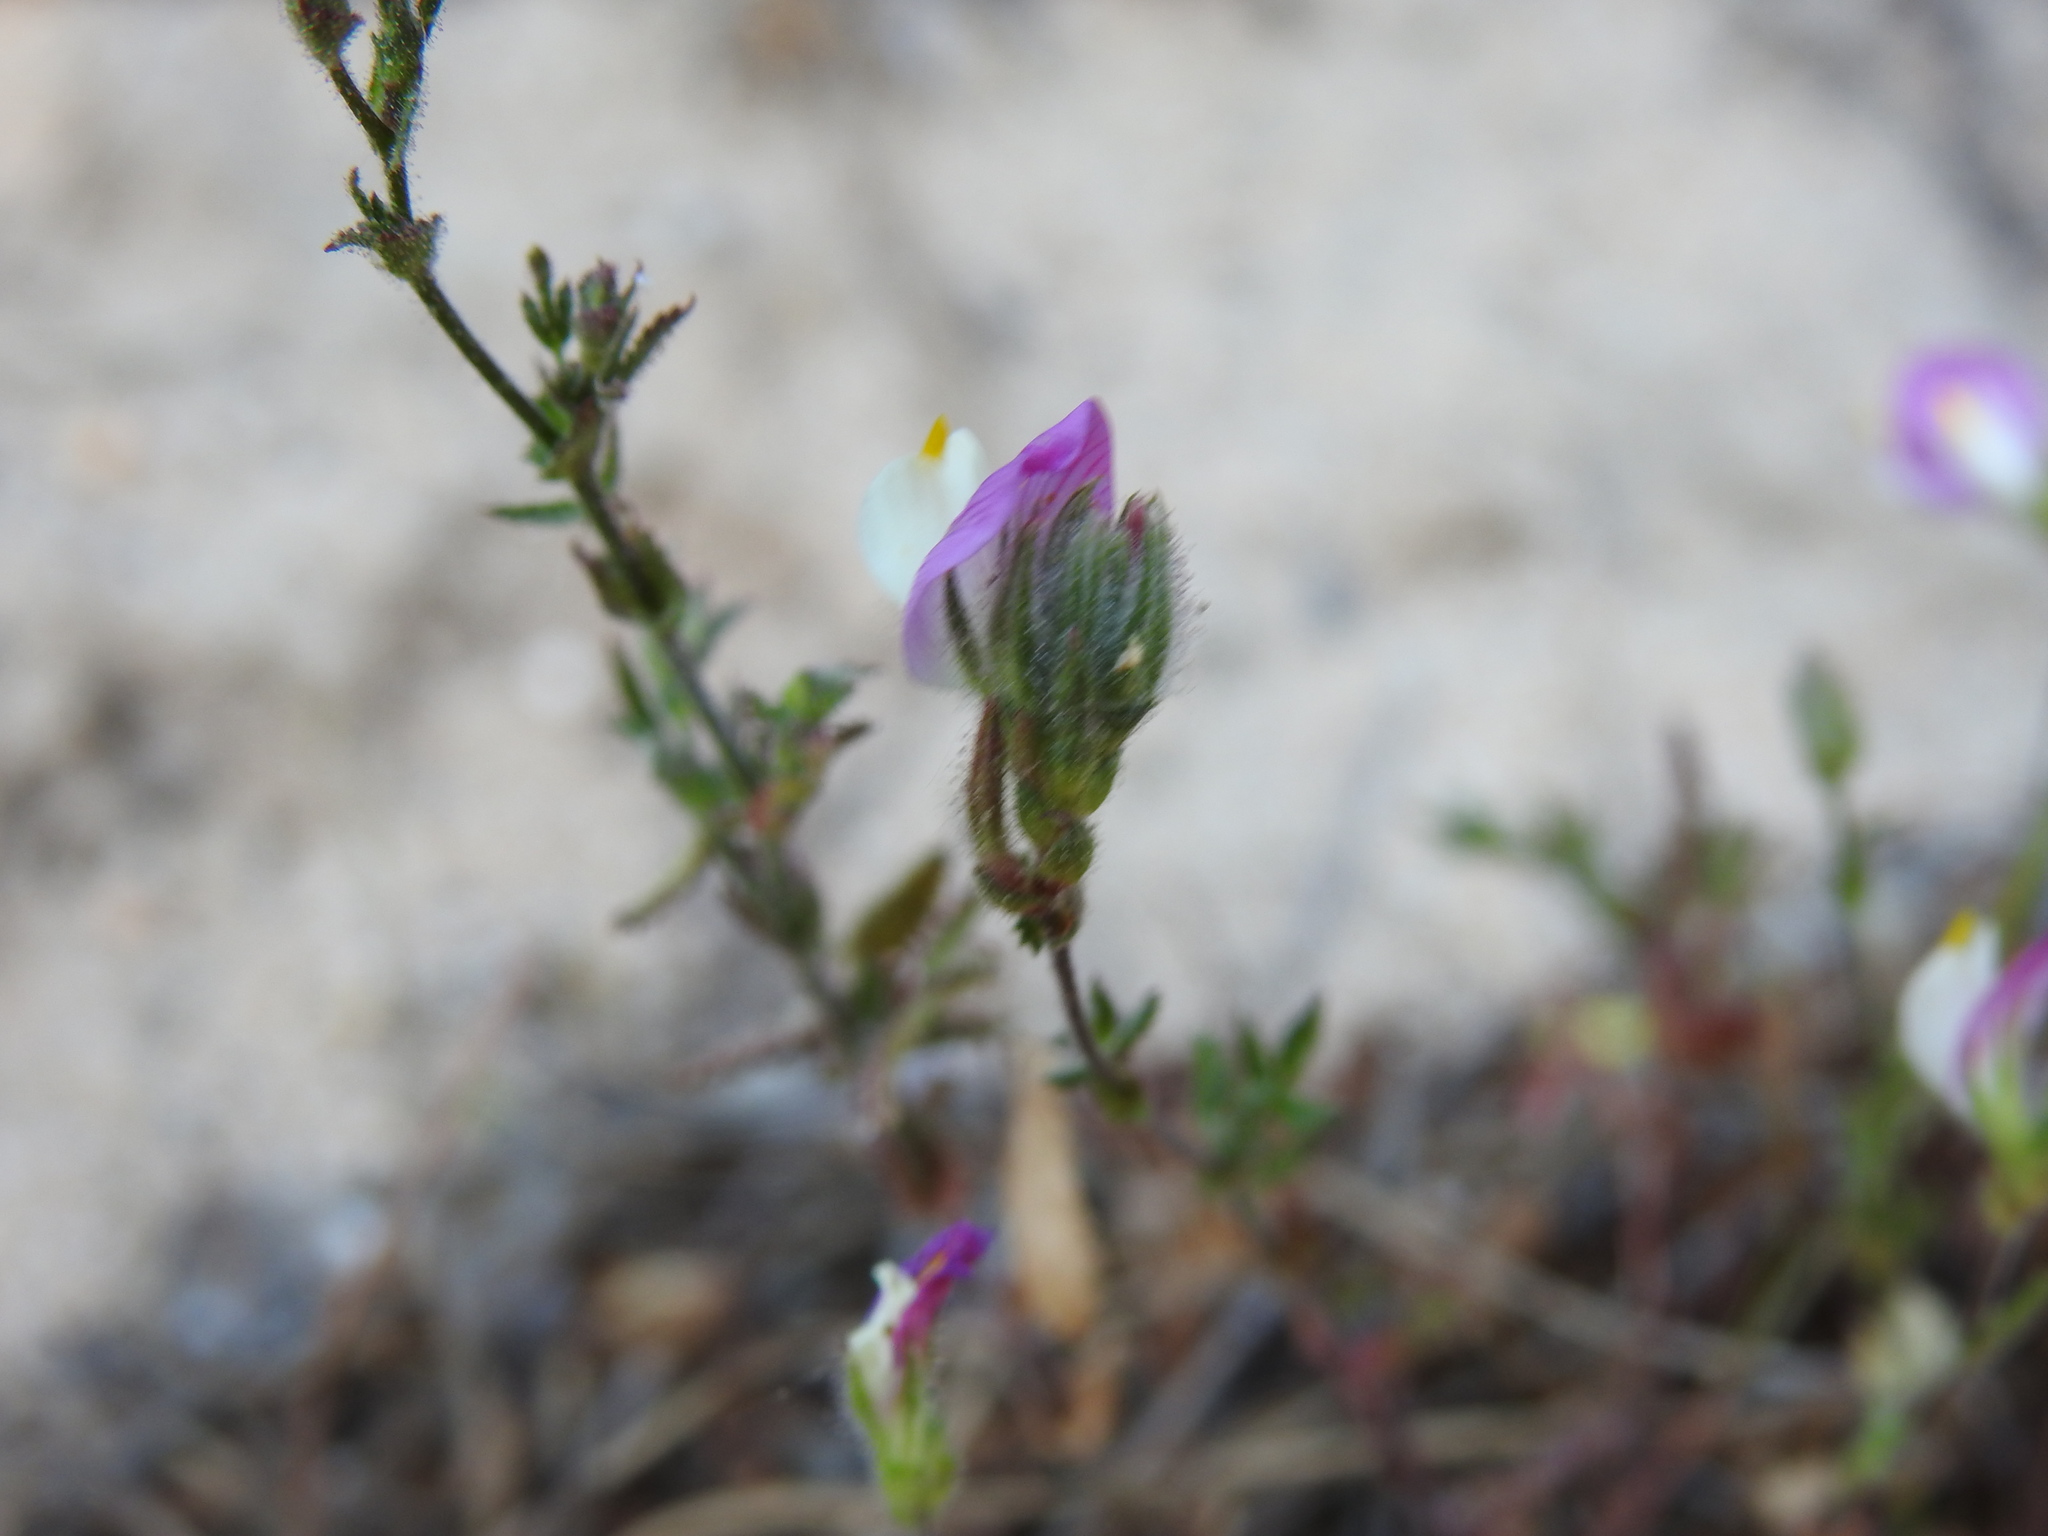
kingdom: Plantae
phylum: Tracheophyta
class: Magnoliopsida
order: Fabales
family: Fabaceae
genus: Ononis
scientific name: Ononis baetica
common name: Andalucian restharrow
